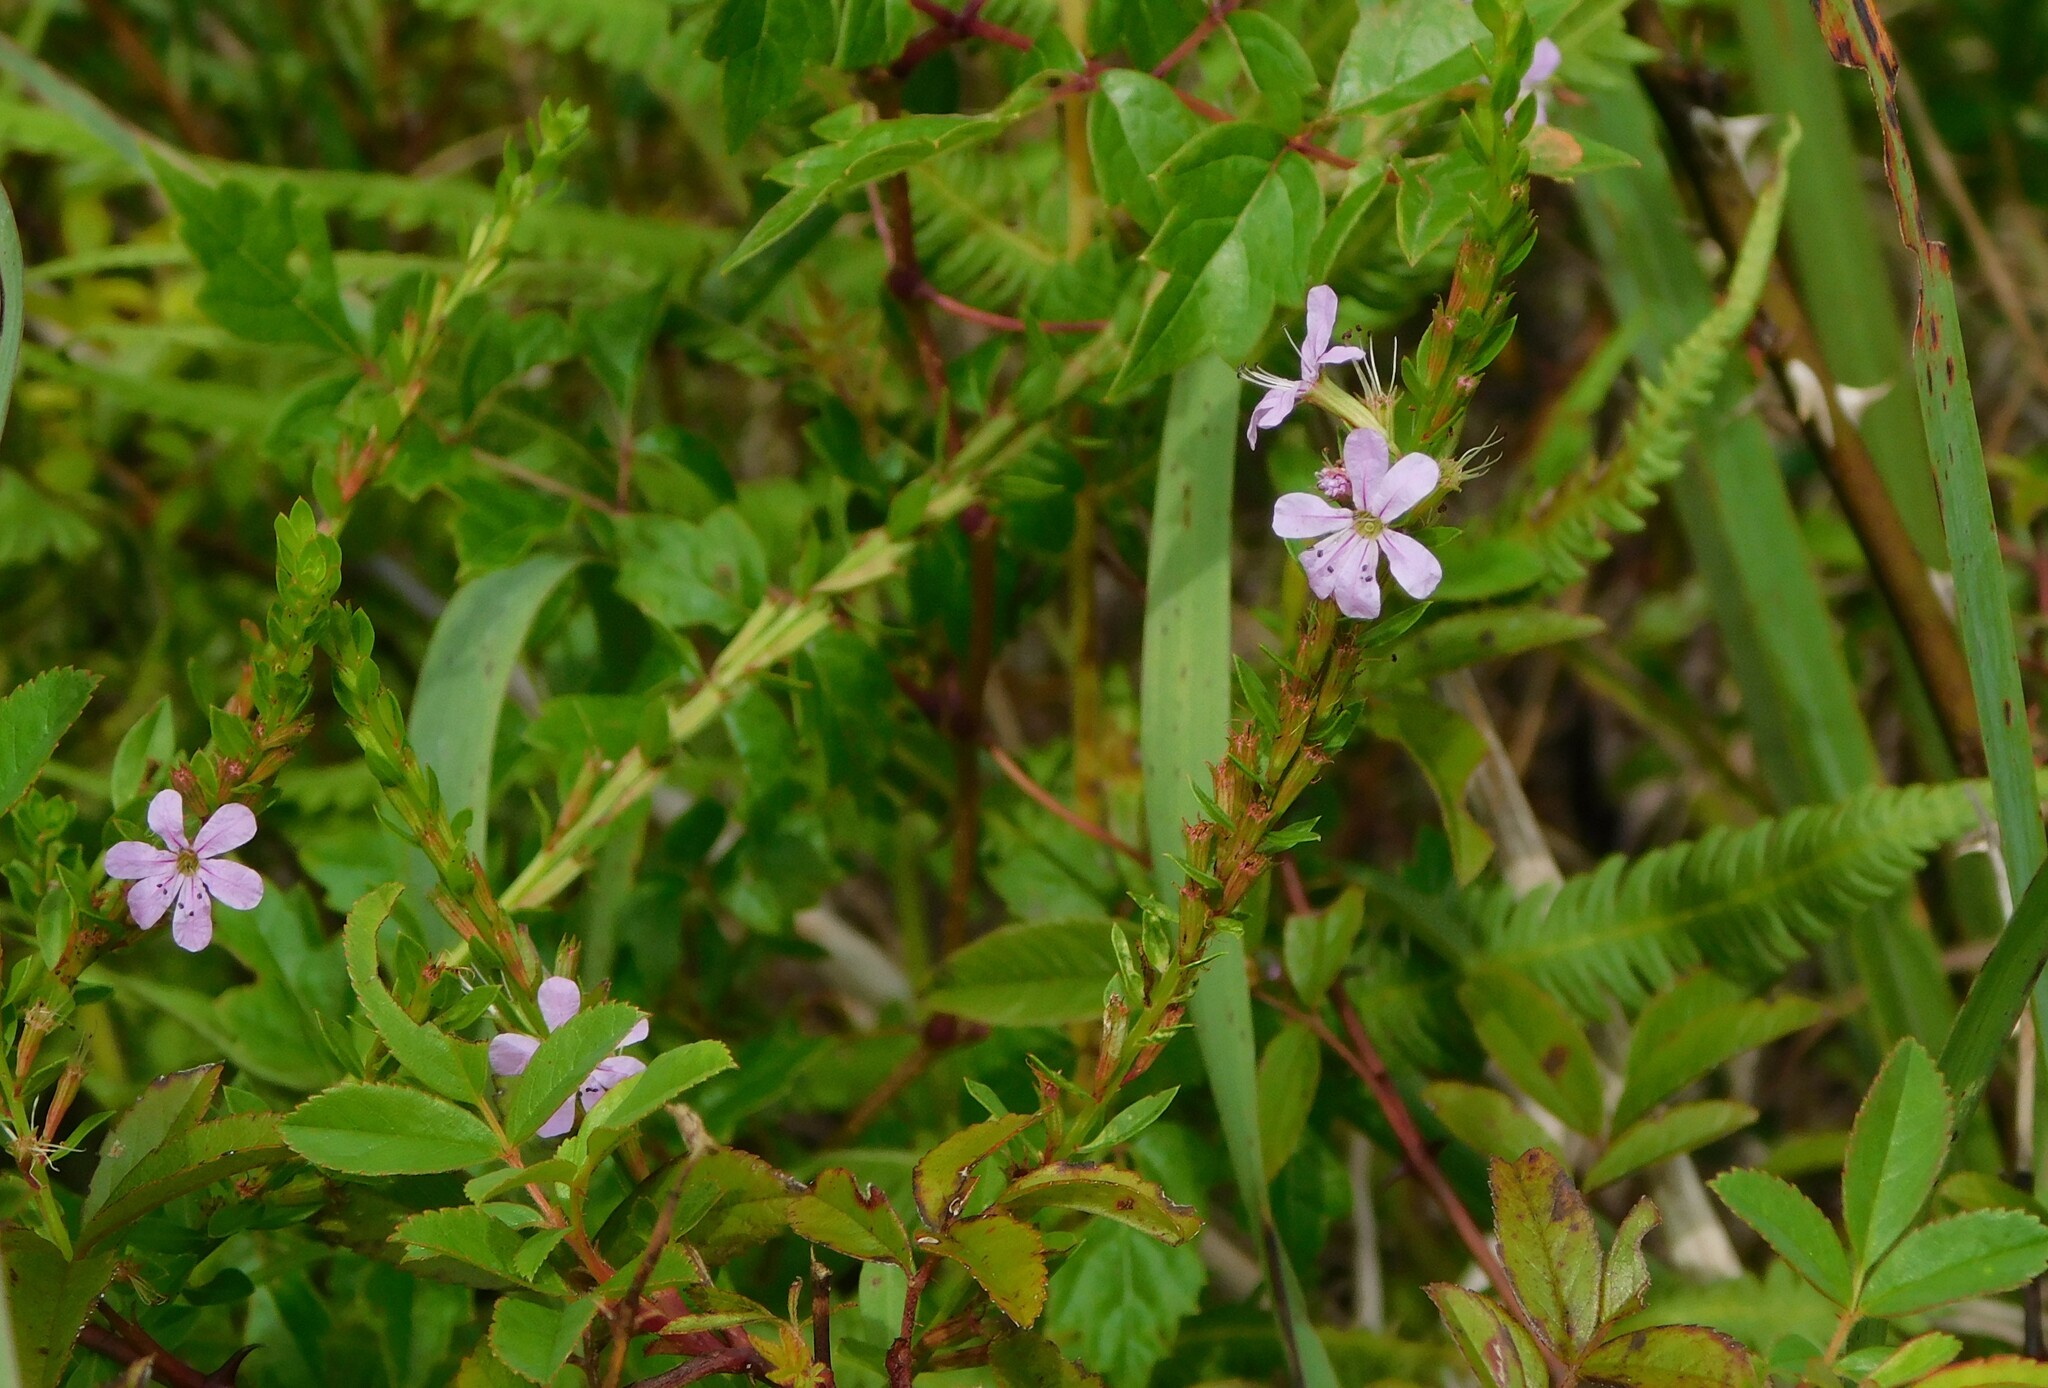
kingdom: Plantae
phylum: Tracheophyta
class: Magnoliopsida
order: Myrtales
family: Lythraceae
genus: Lythrum
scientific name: Lythrum alatum
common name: Winged loosestrife
